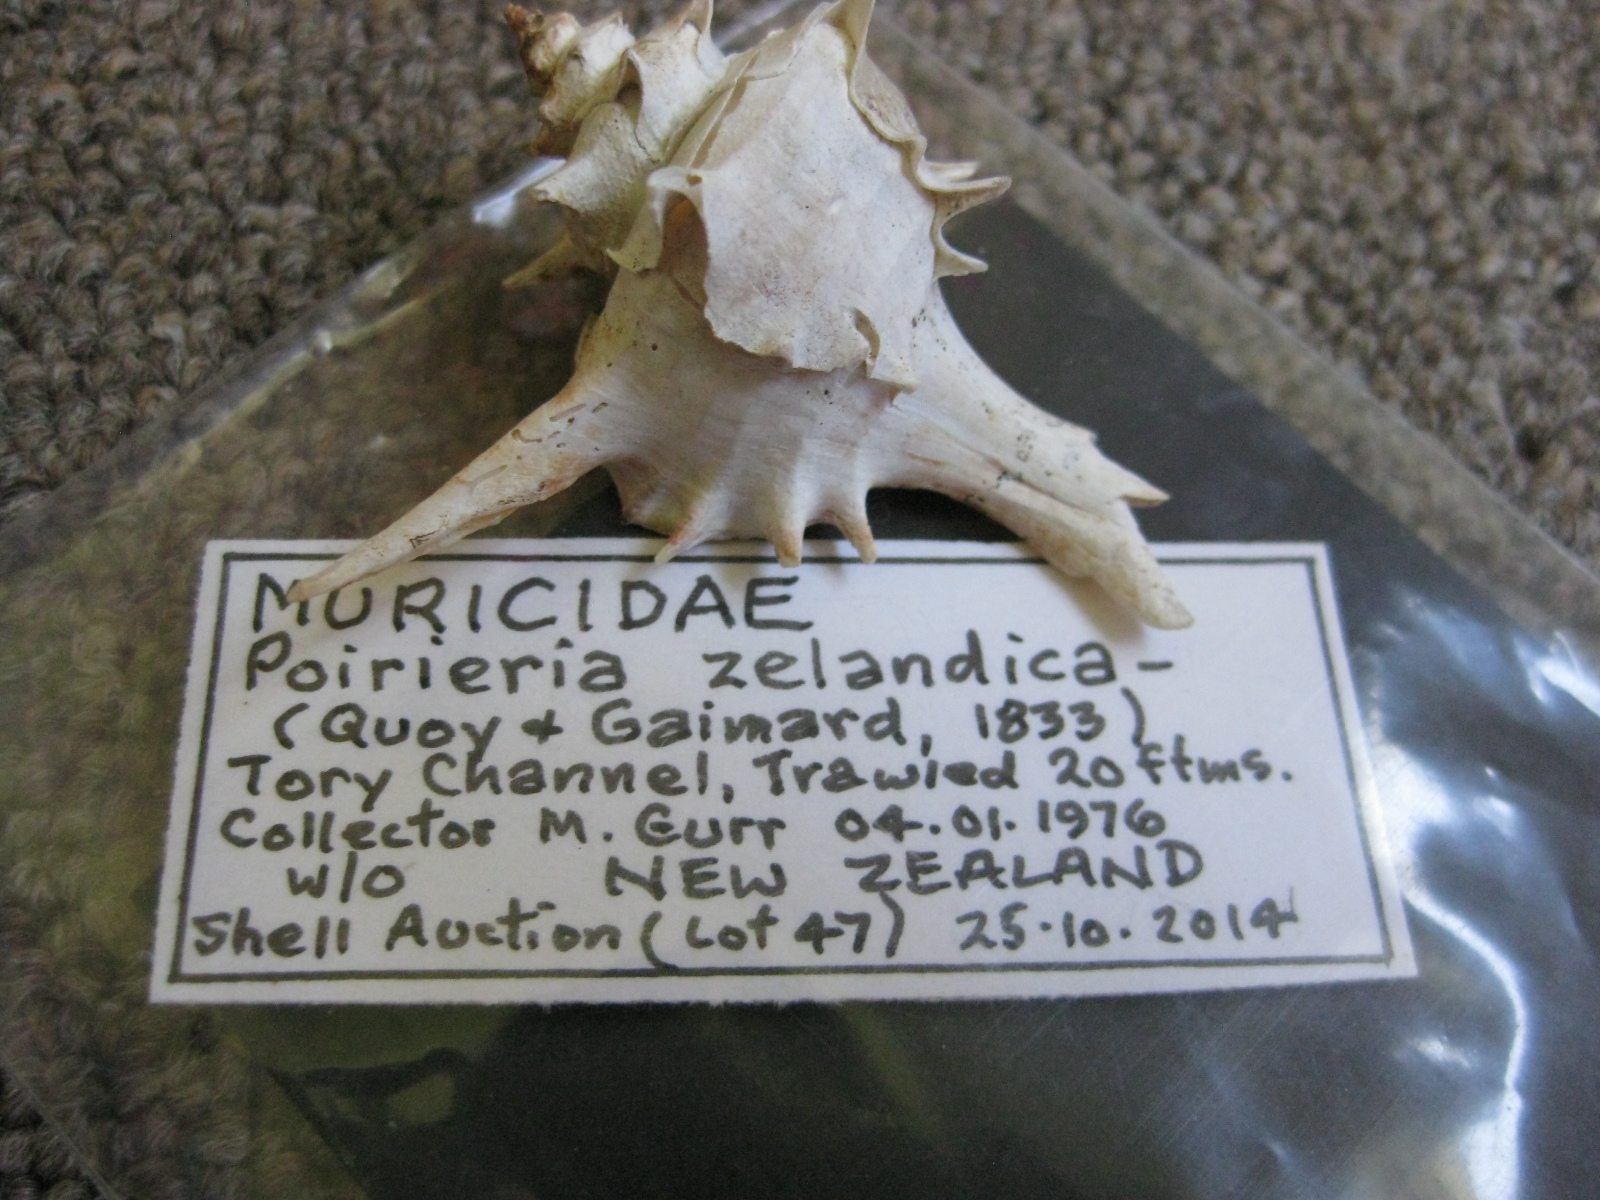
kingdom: Animalia
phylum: Mollusca
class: Gastropoda
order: Neogastropoda
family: Muricidae
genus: Poirieria
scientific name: Poirieria zelandica
